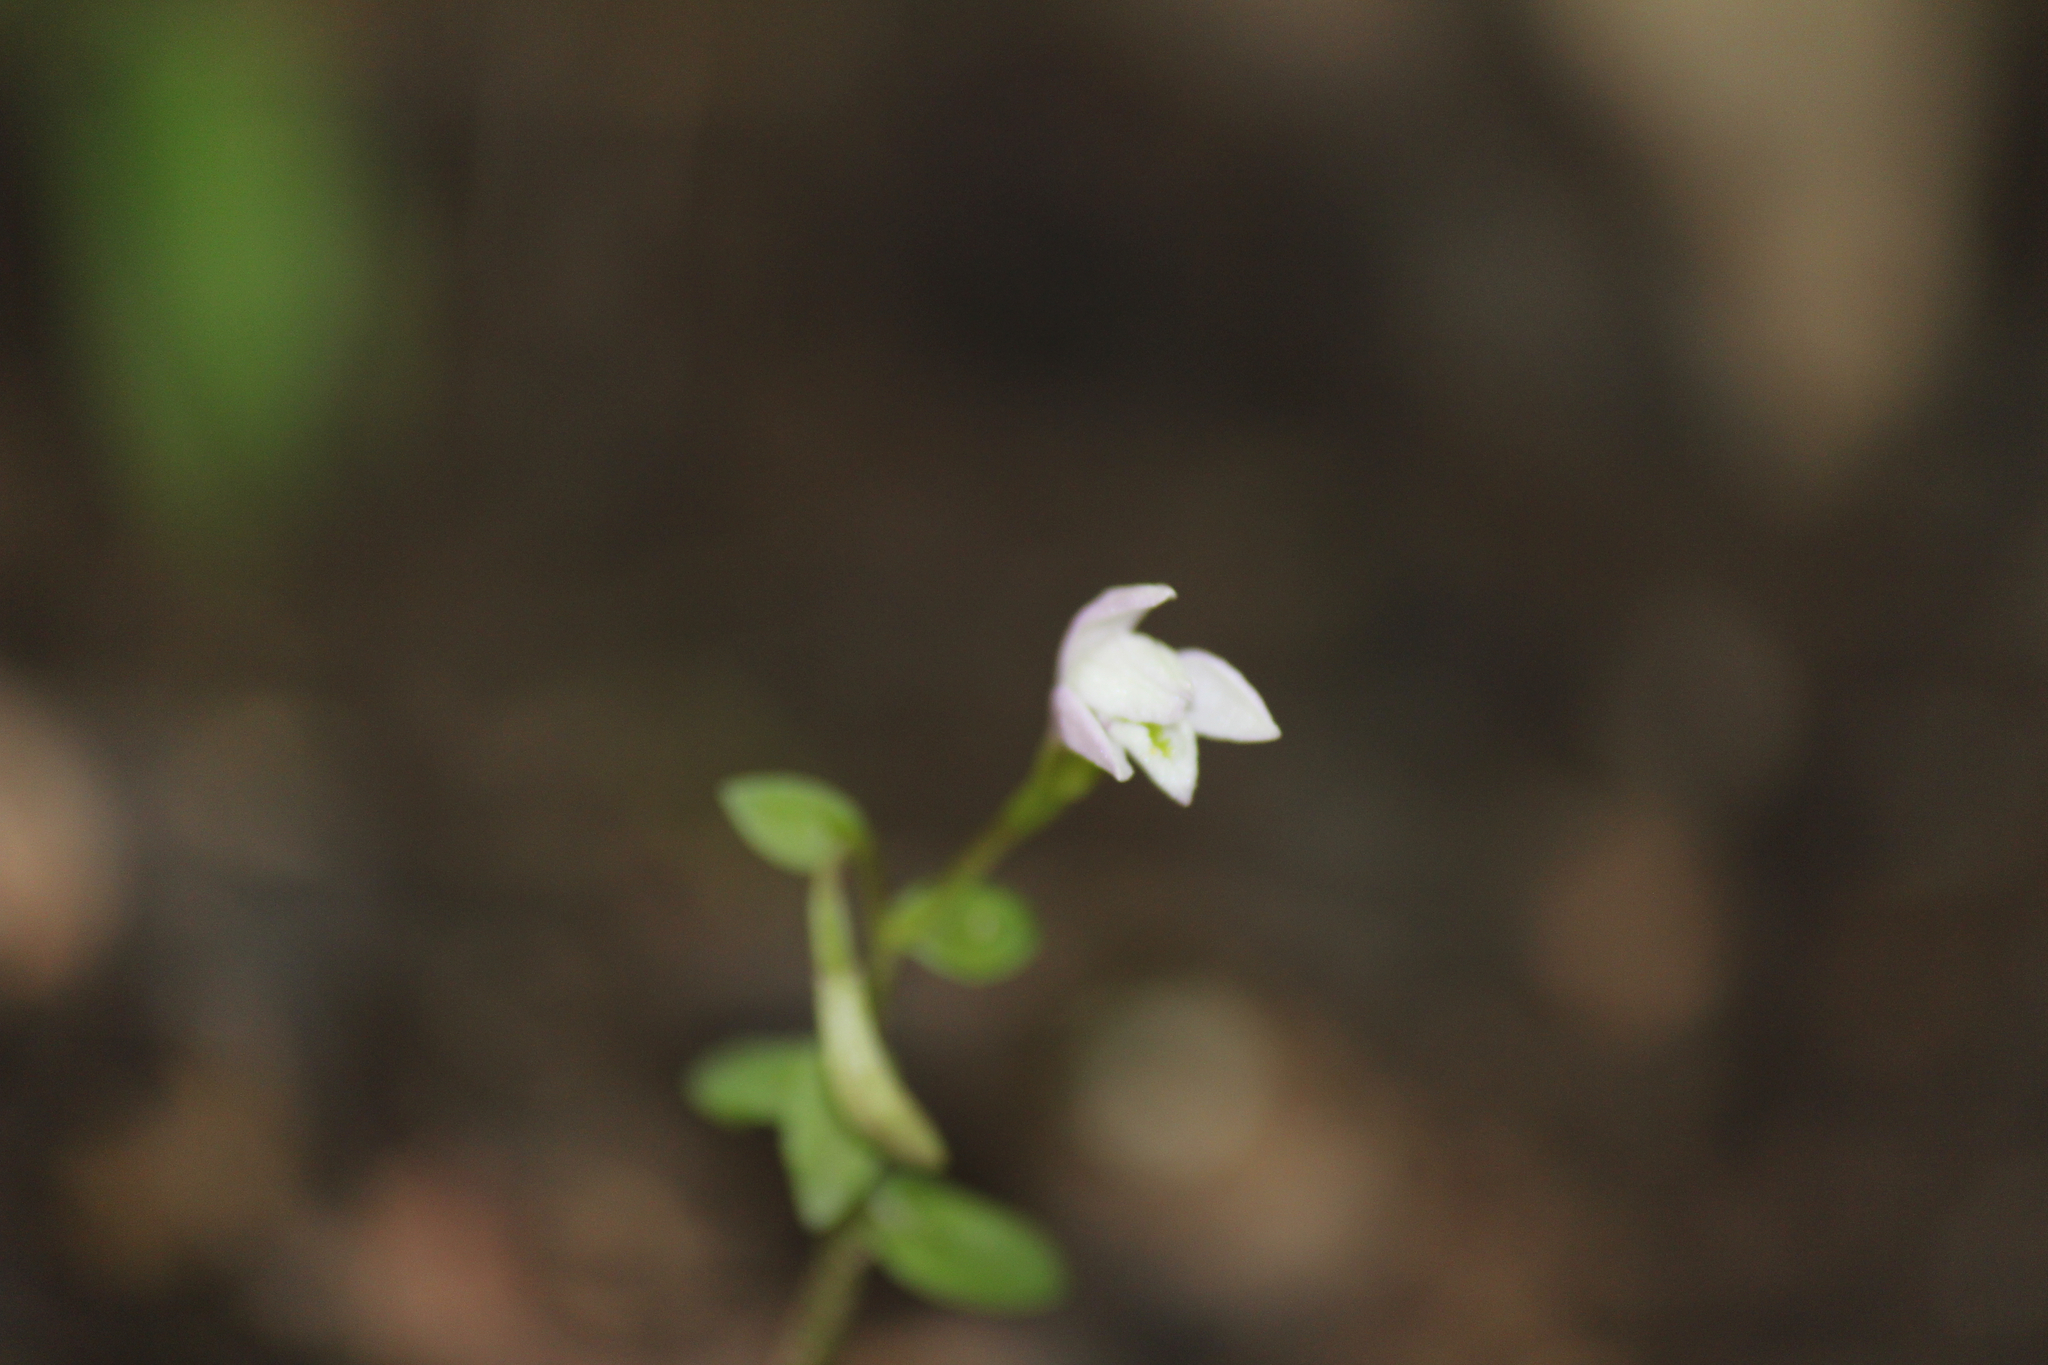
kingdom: Plantae
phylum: Tracheophyta
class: Liliopsida
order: Asparagales
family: Orchidaceae
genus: Triphora
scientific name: Triphora trianthophoros
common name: Three birds orchid
